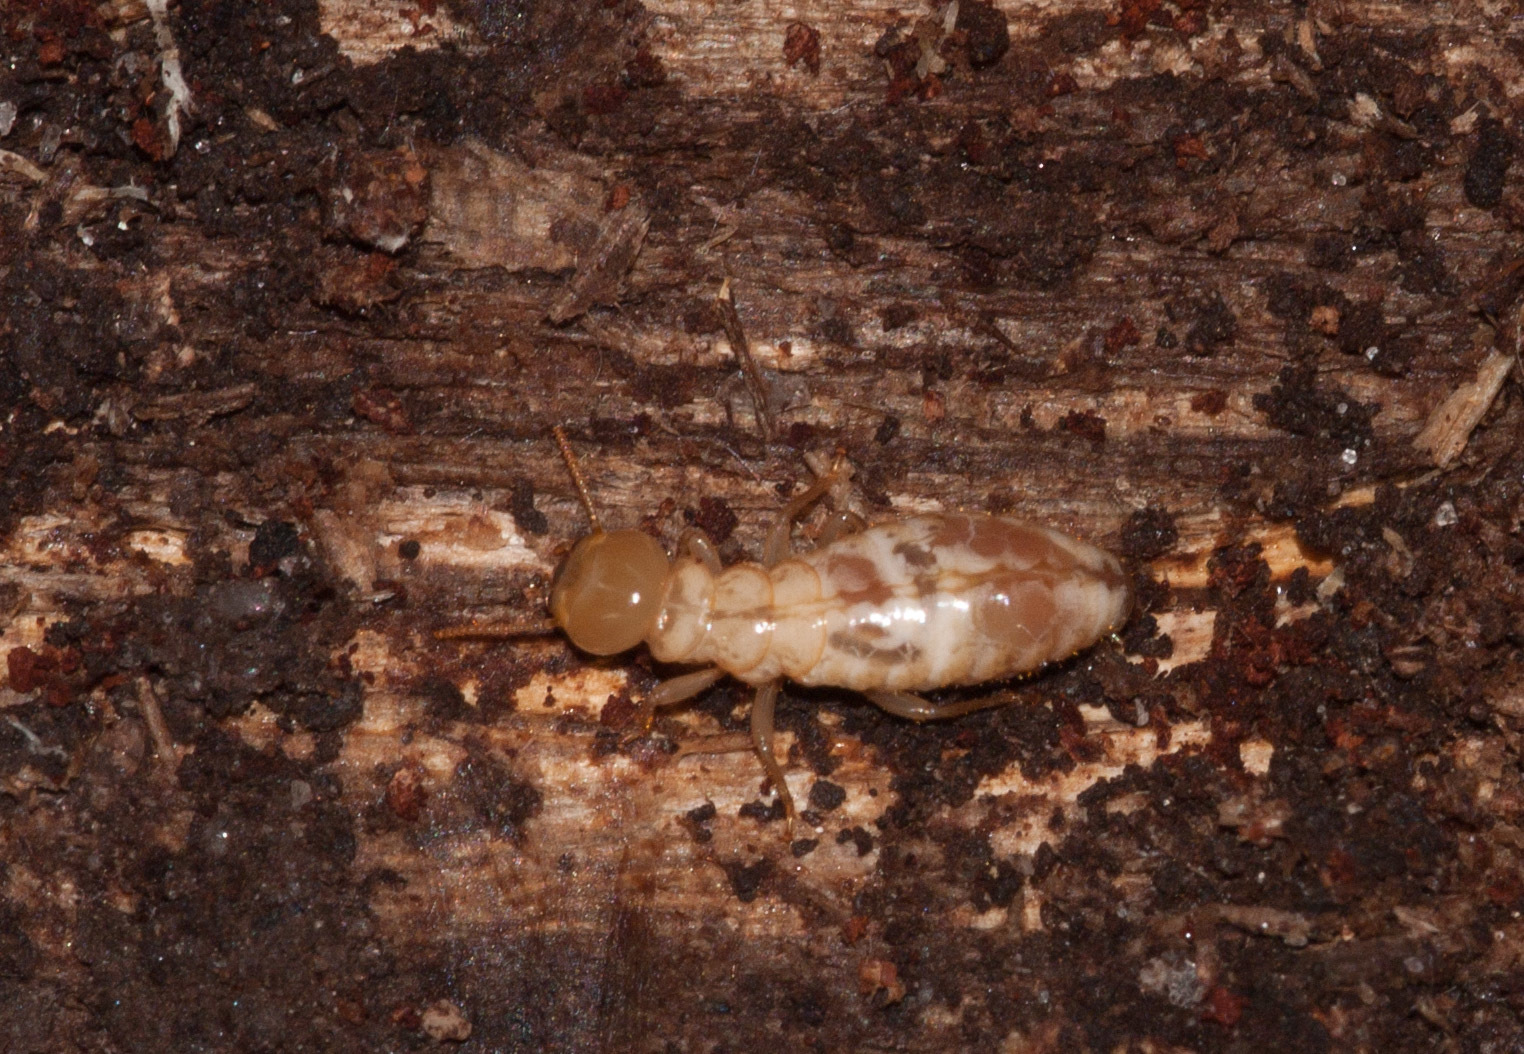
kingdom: Animalia
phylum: Arthropoda
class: Insecta
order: Blattodea
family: Stolotermitidae
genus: Porotermes
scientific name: Porotermes adamsoni
